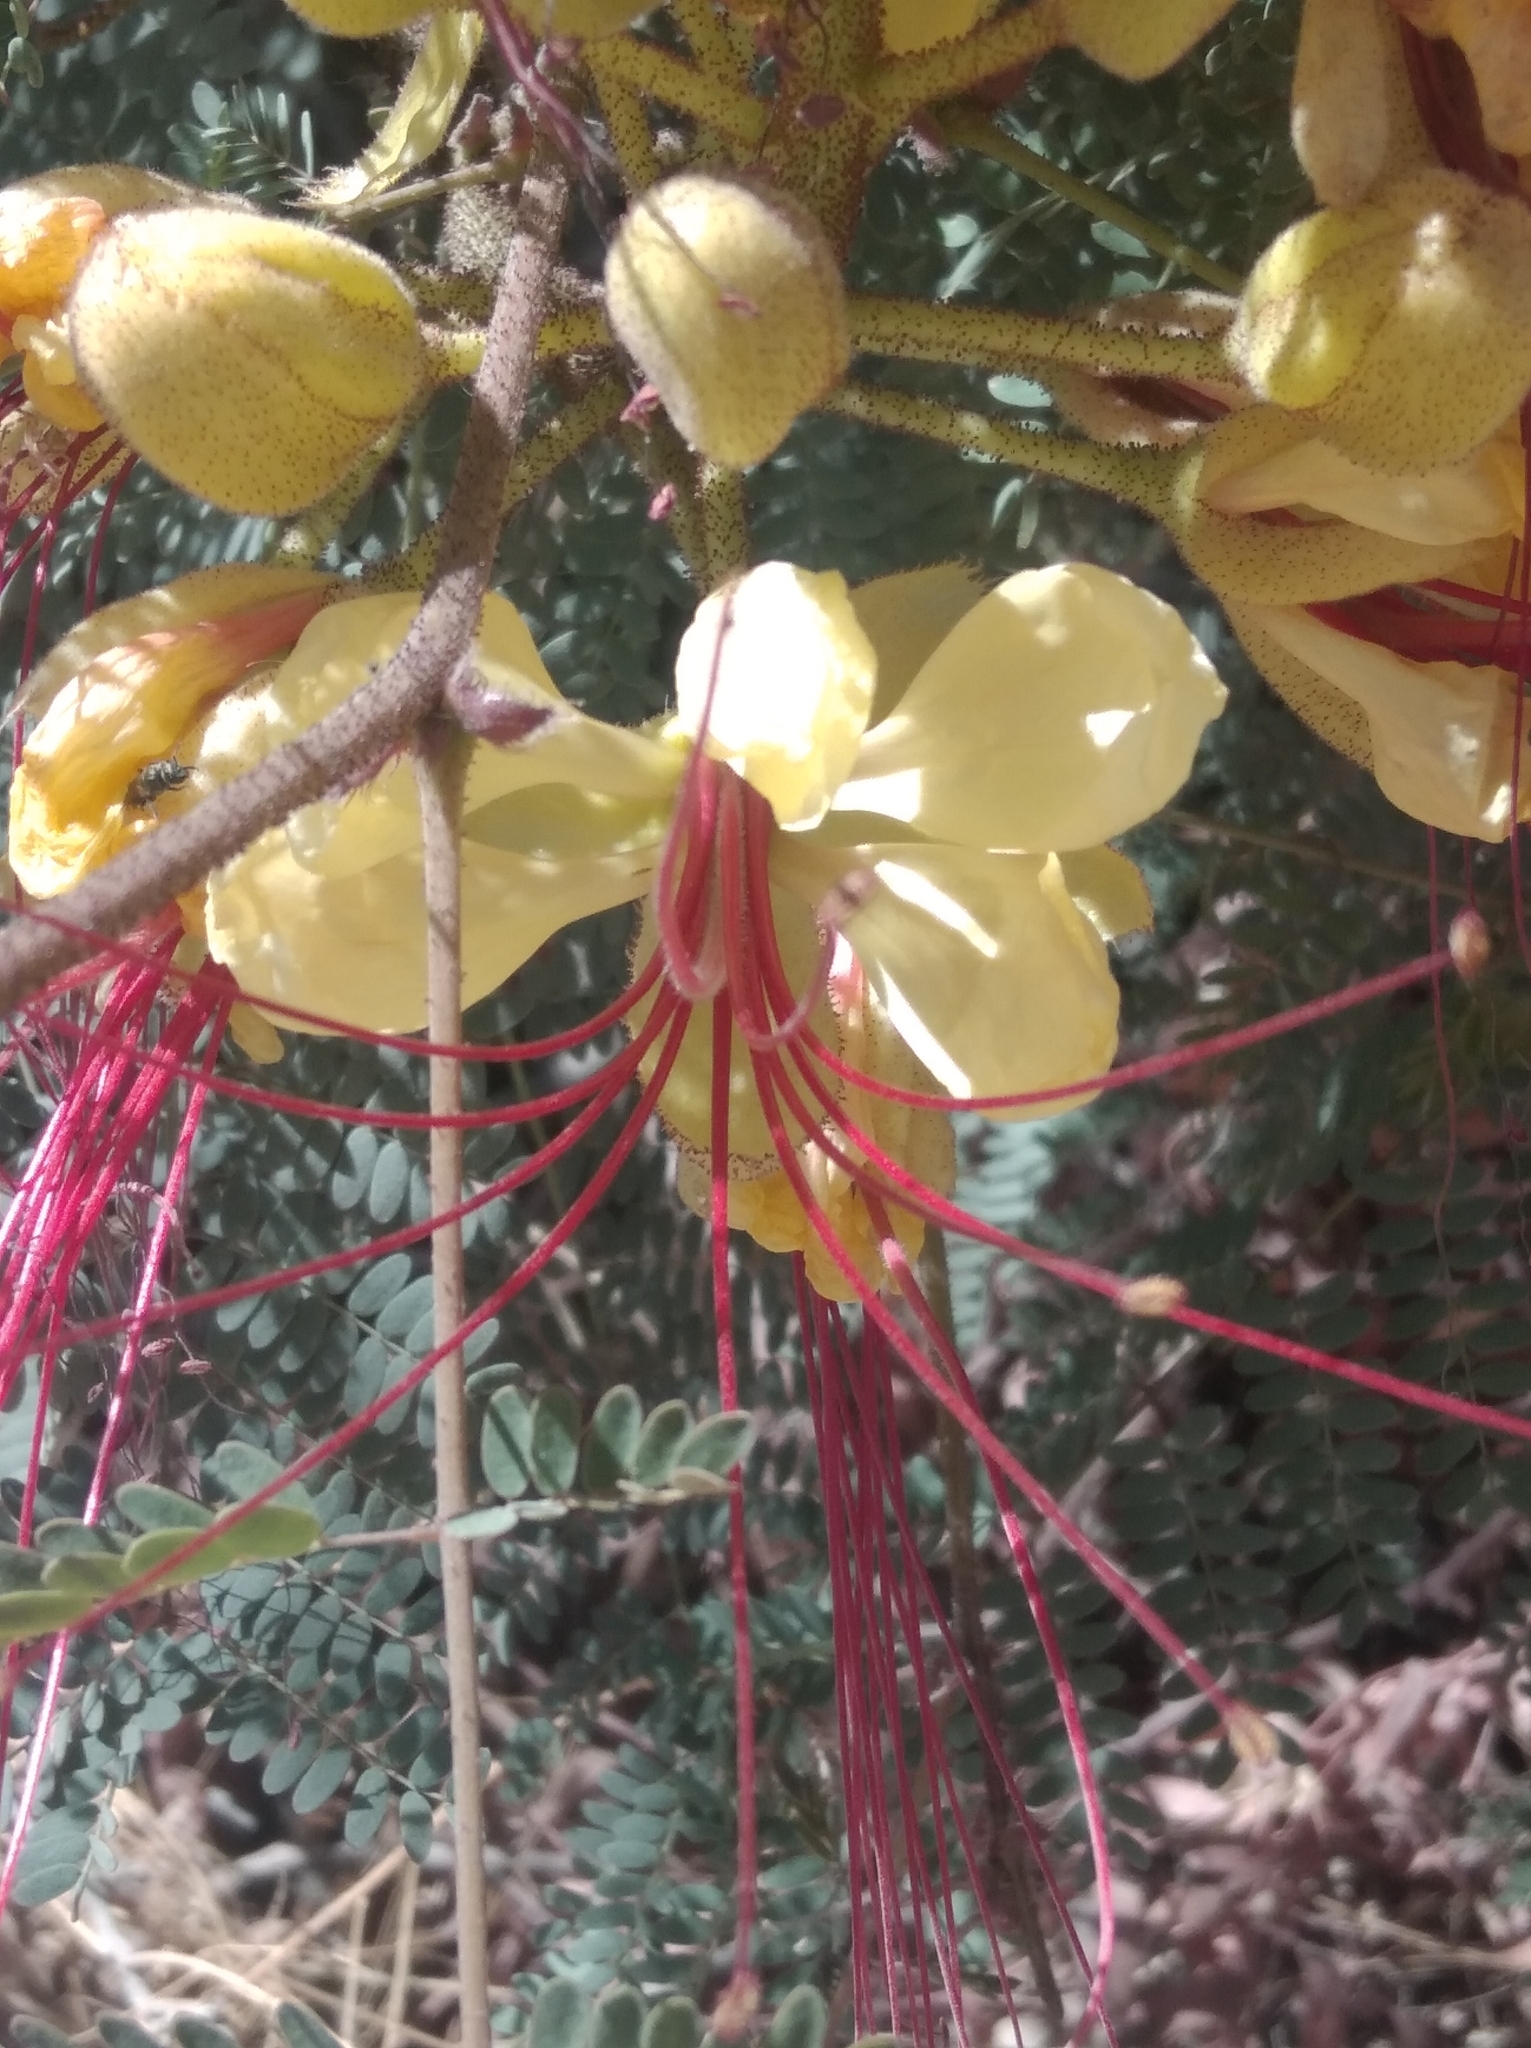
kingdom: Plantae
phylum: Tracheophyta
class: Magnoliopsida
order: Fabales
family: Fabaceae
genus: Erythrostemon
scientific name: Erythrostemon gilliesii
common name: Bird-of-paradise shrub
